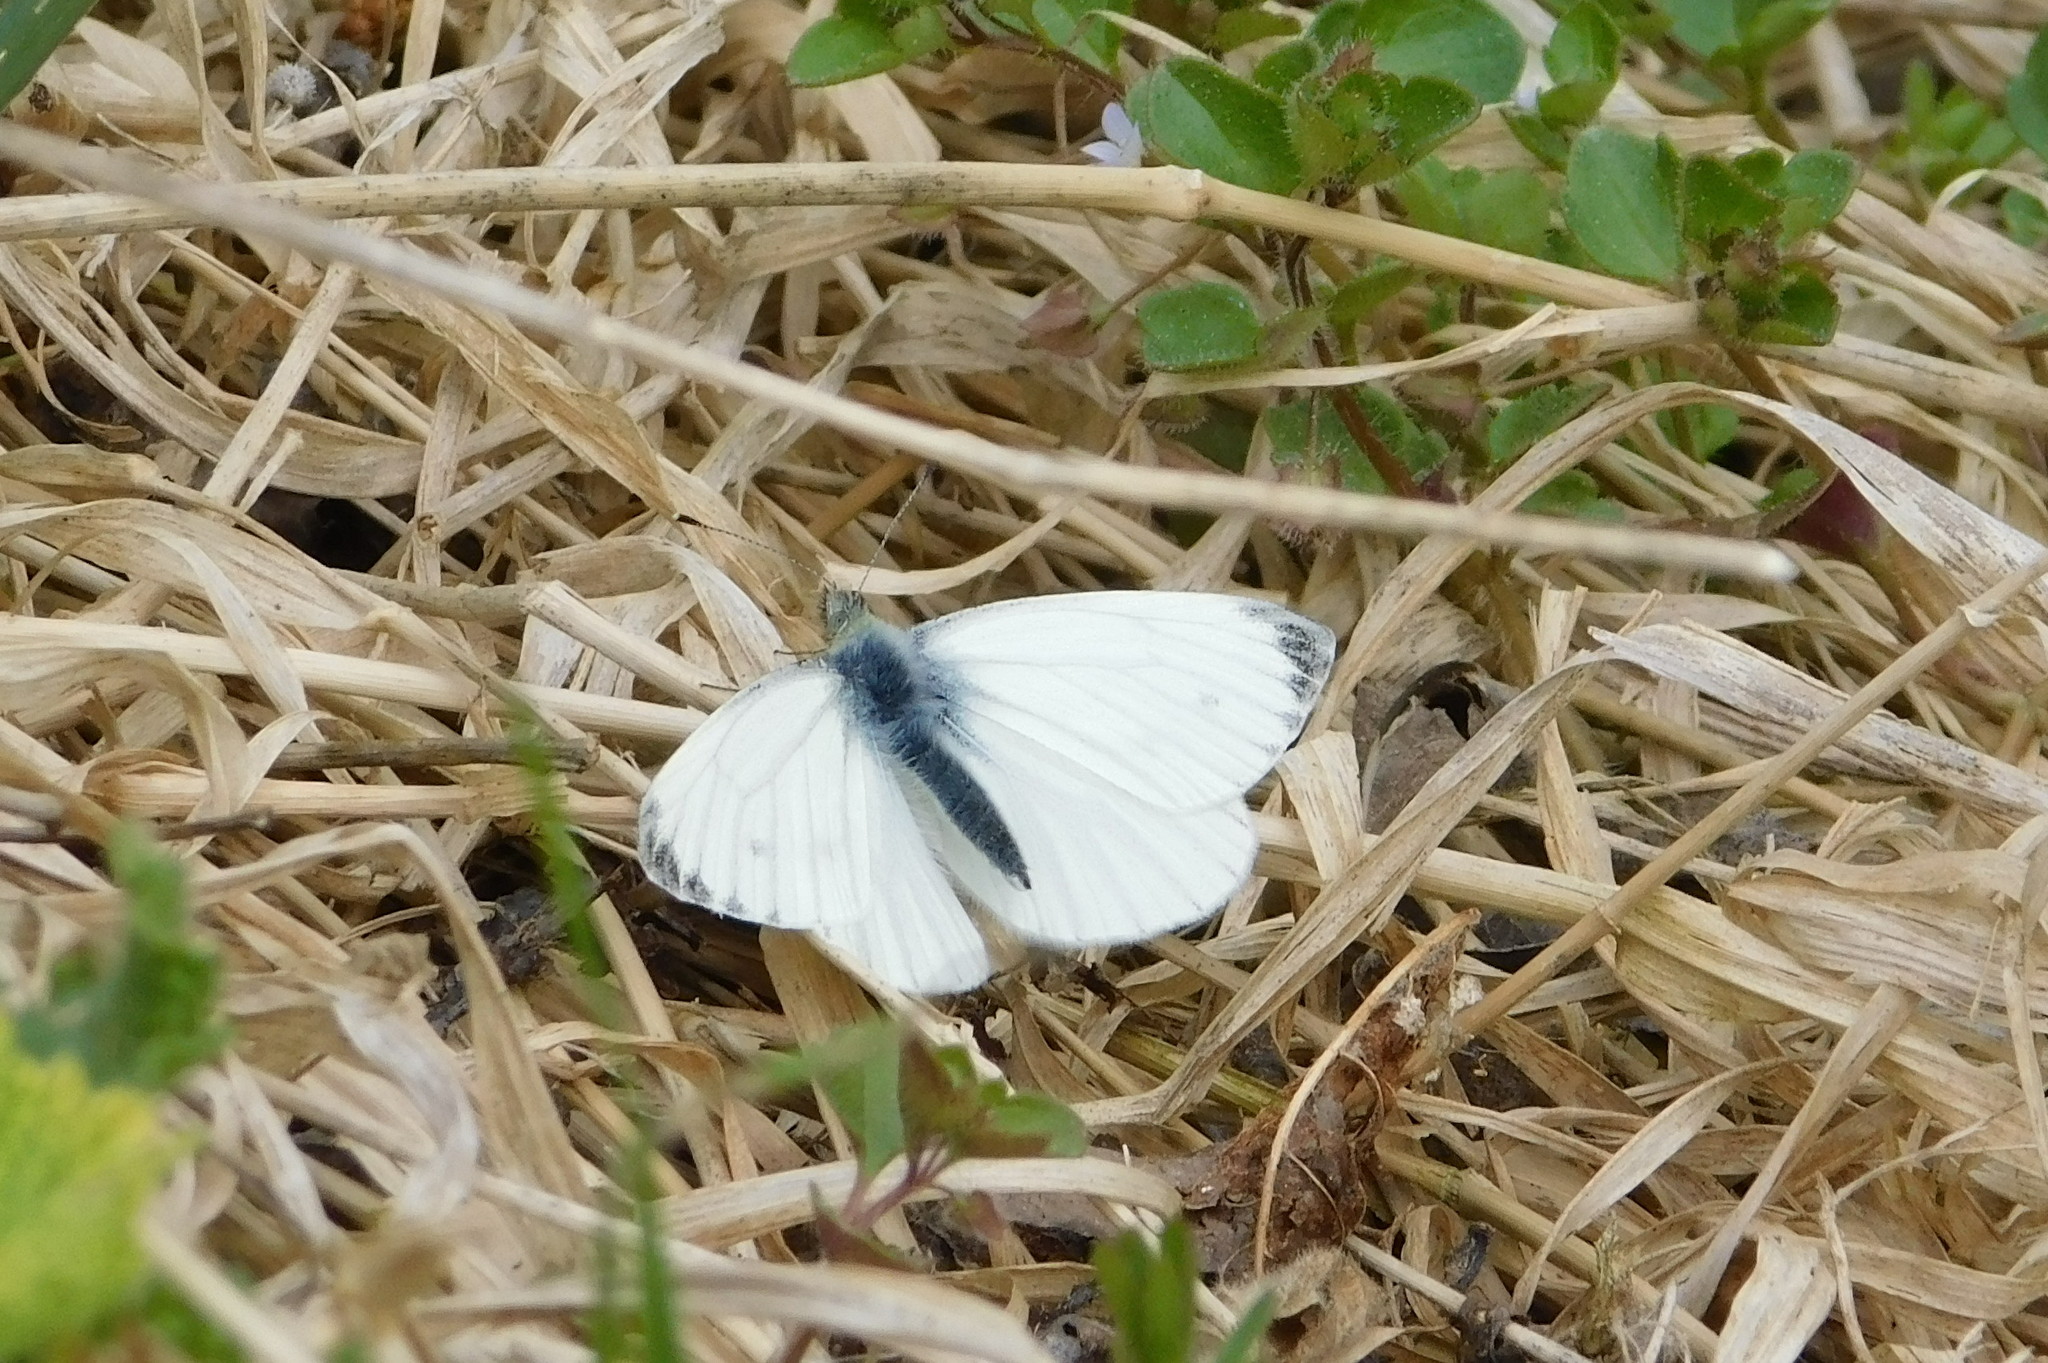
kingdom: Animalia
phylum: Arthropoda
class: Insecta
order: Lepidoptera
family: Pieridae
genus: Pieris
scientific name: Pieris napi
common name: Green-veined white
